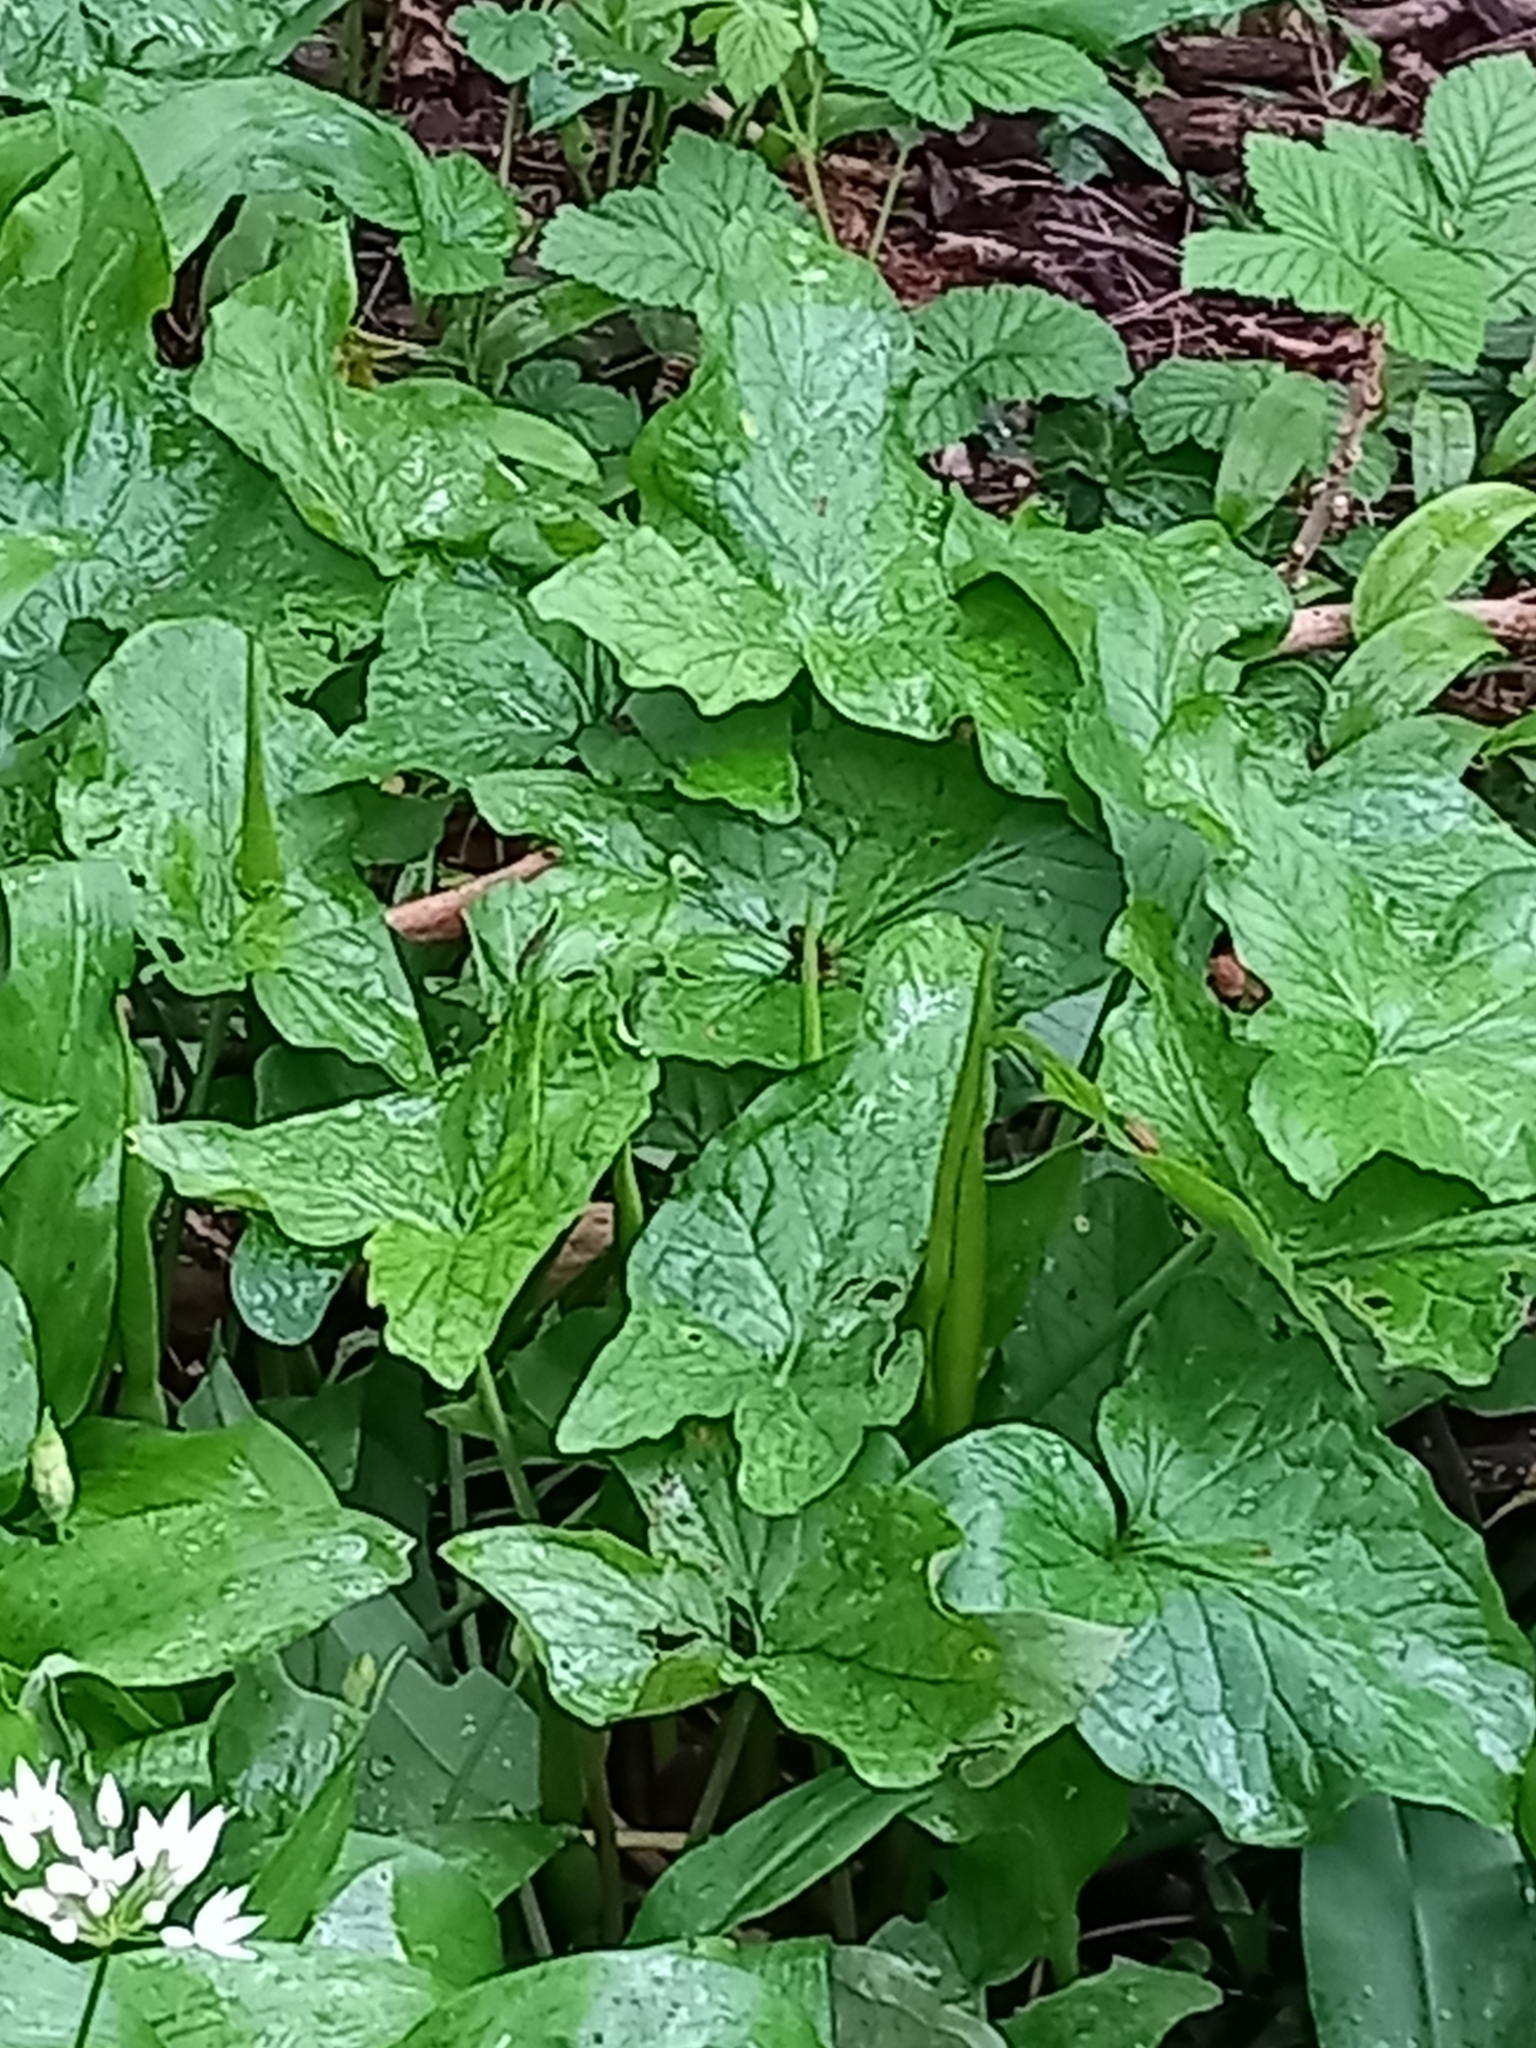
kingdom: Plantae
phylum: Tracheophyta
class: Liliopsida
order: Alismatales
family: Araceae
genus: Arum
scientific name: Arum maculatum
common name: Lords-and-ladies
